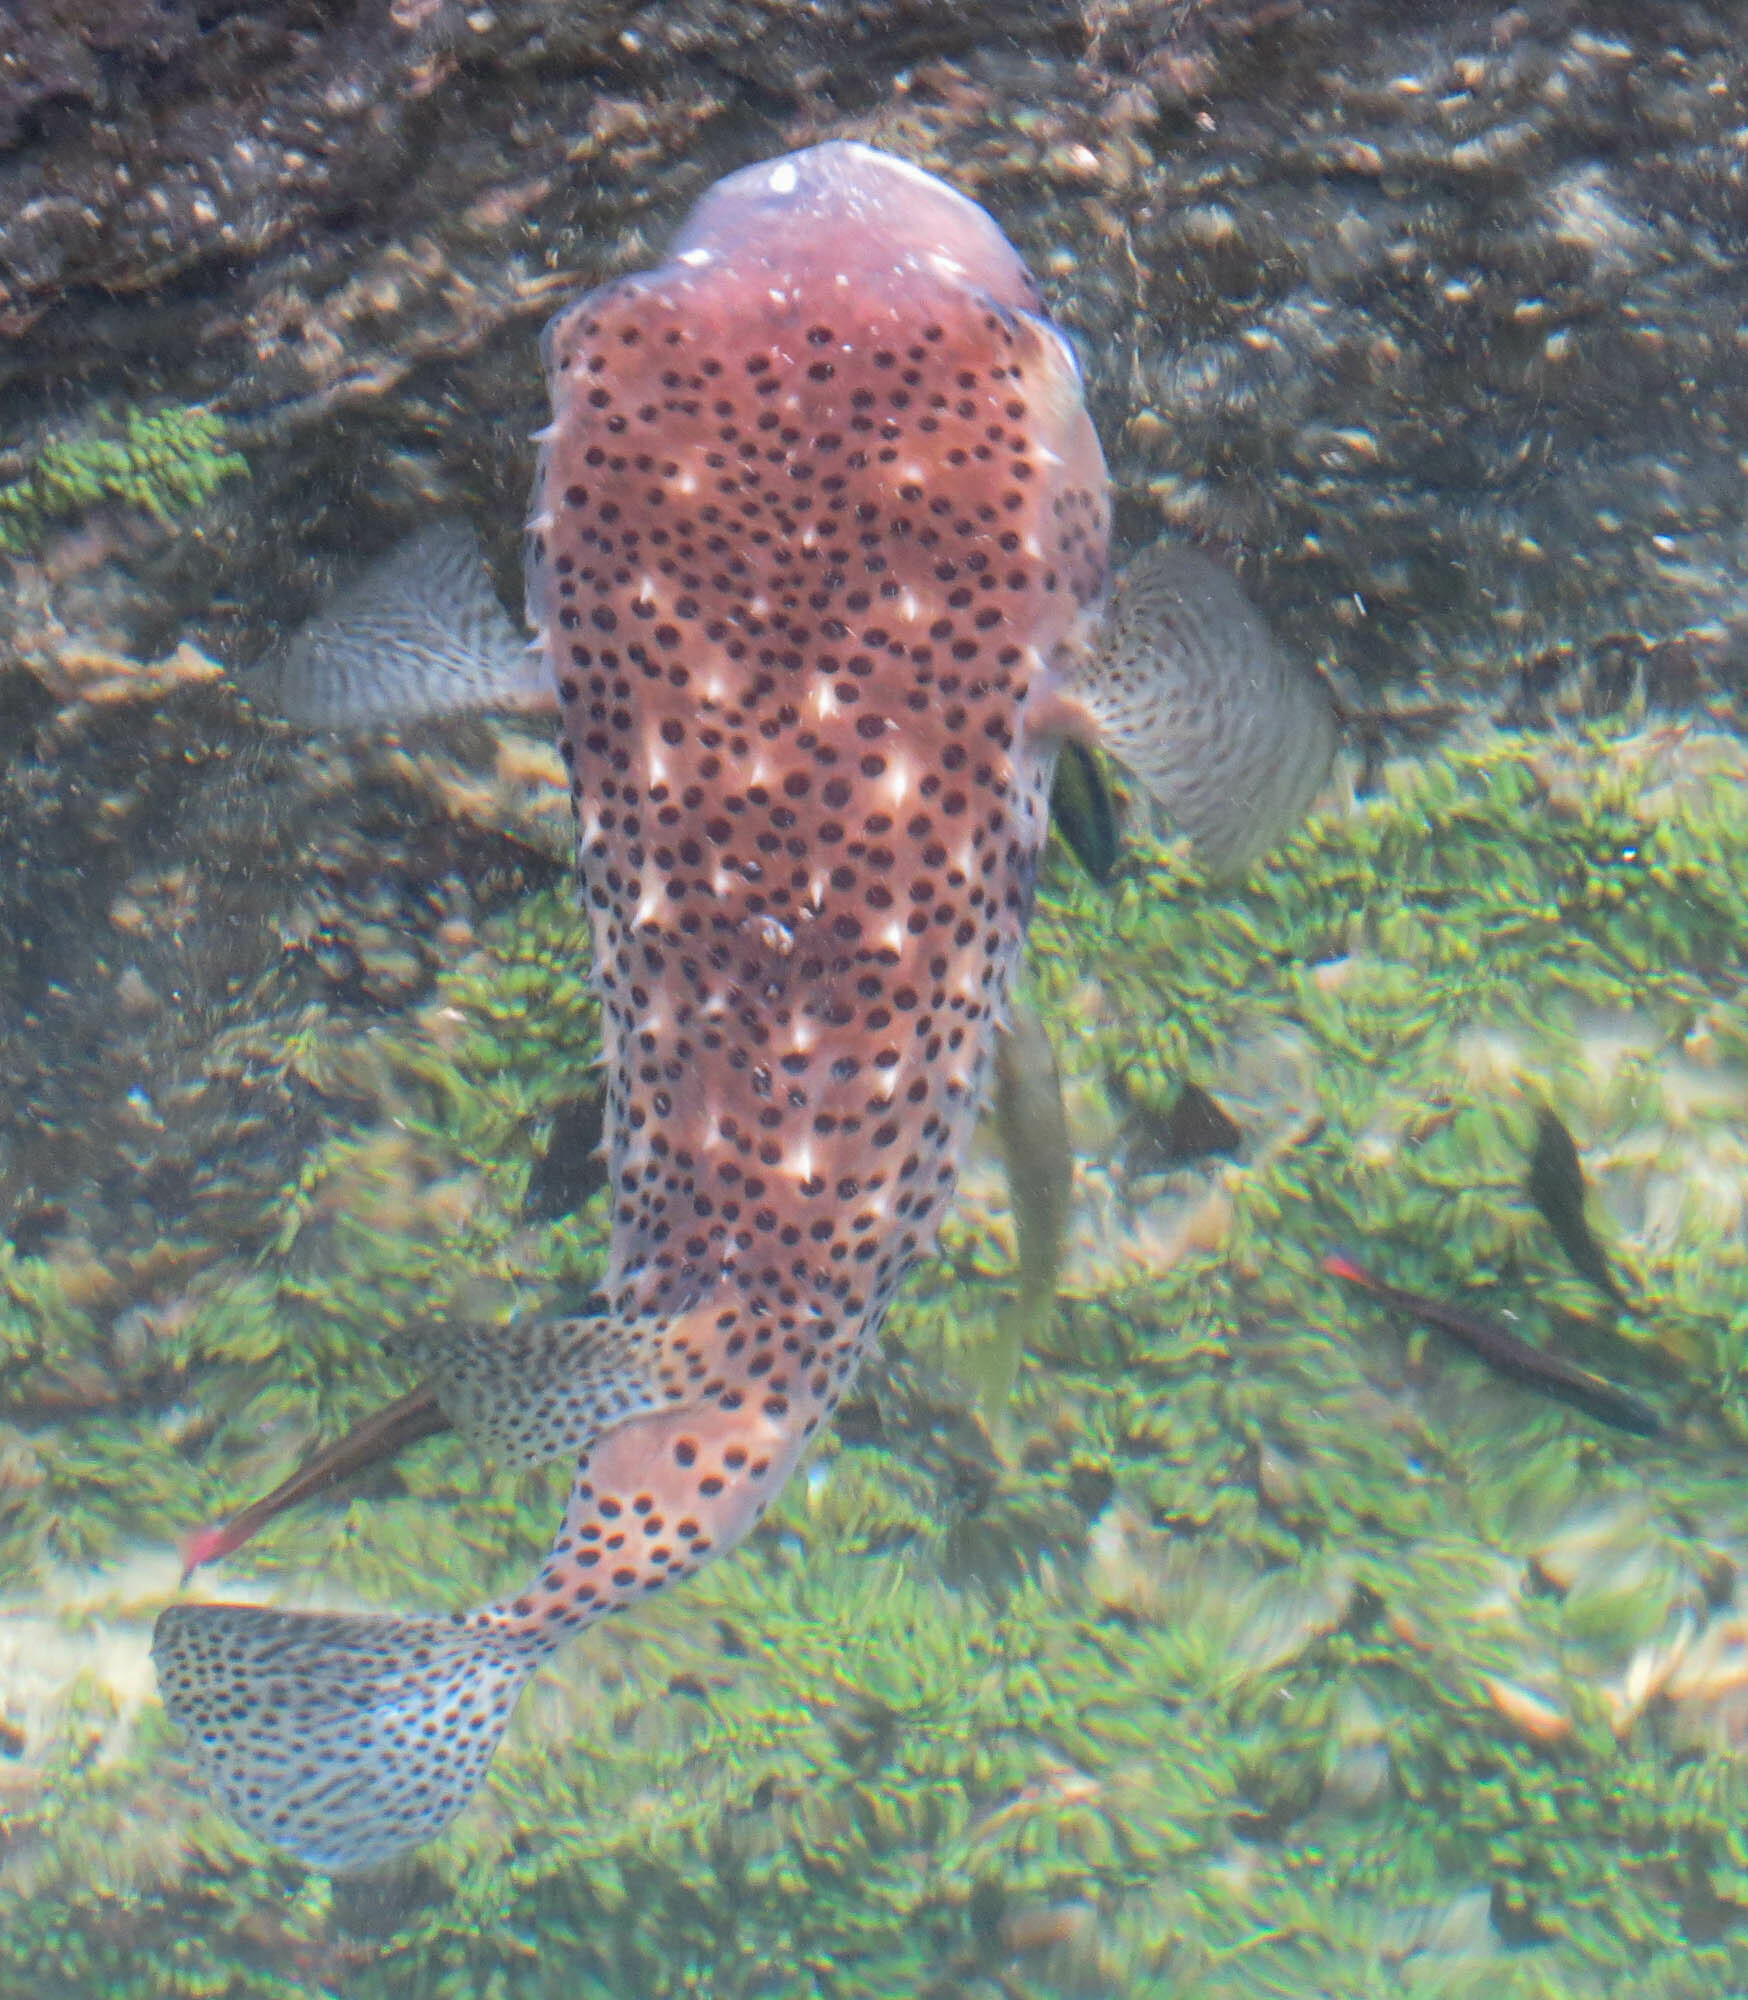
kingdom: Animalia
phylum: Chordata
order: Tetraodontiformes
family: Diodontidae
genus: Chilomycterus
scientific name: Chilomycterus reticulatus
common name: Spotfin burrfish
